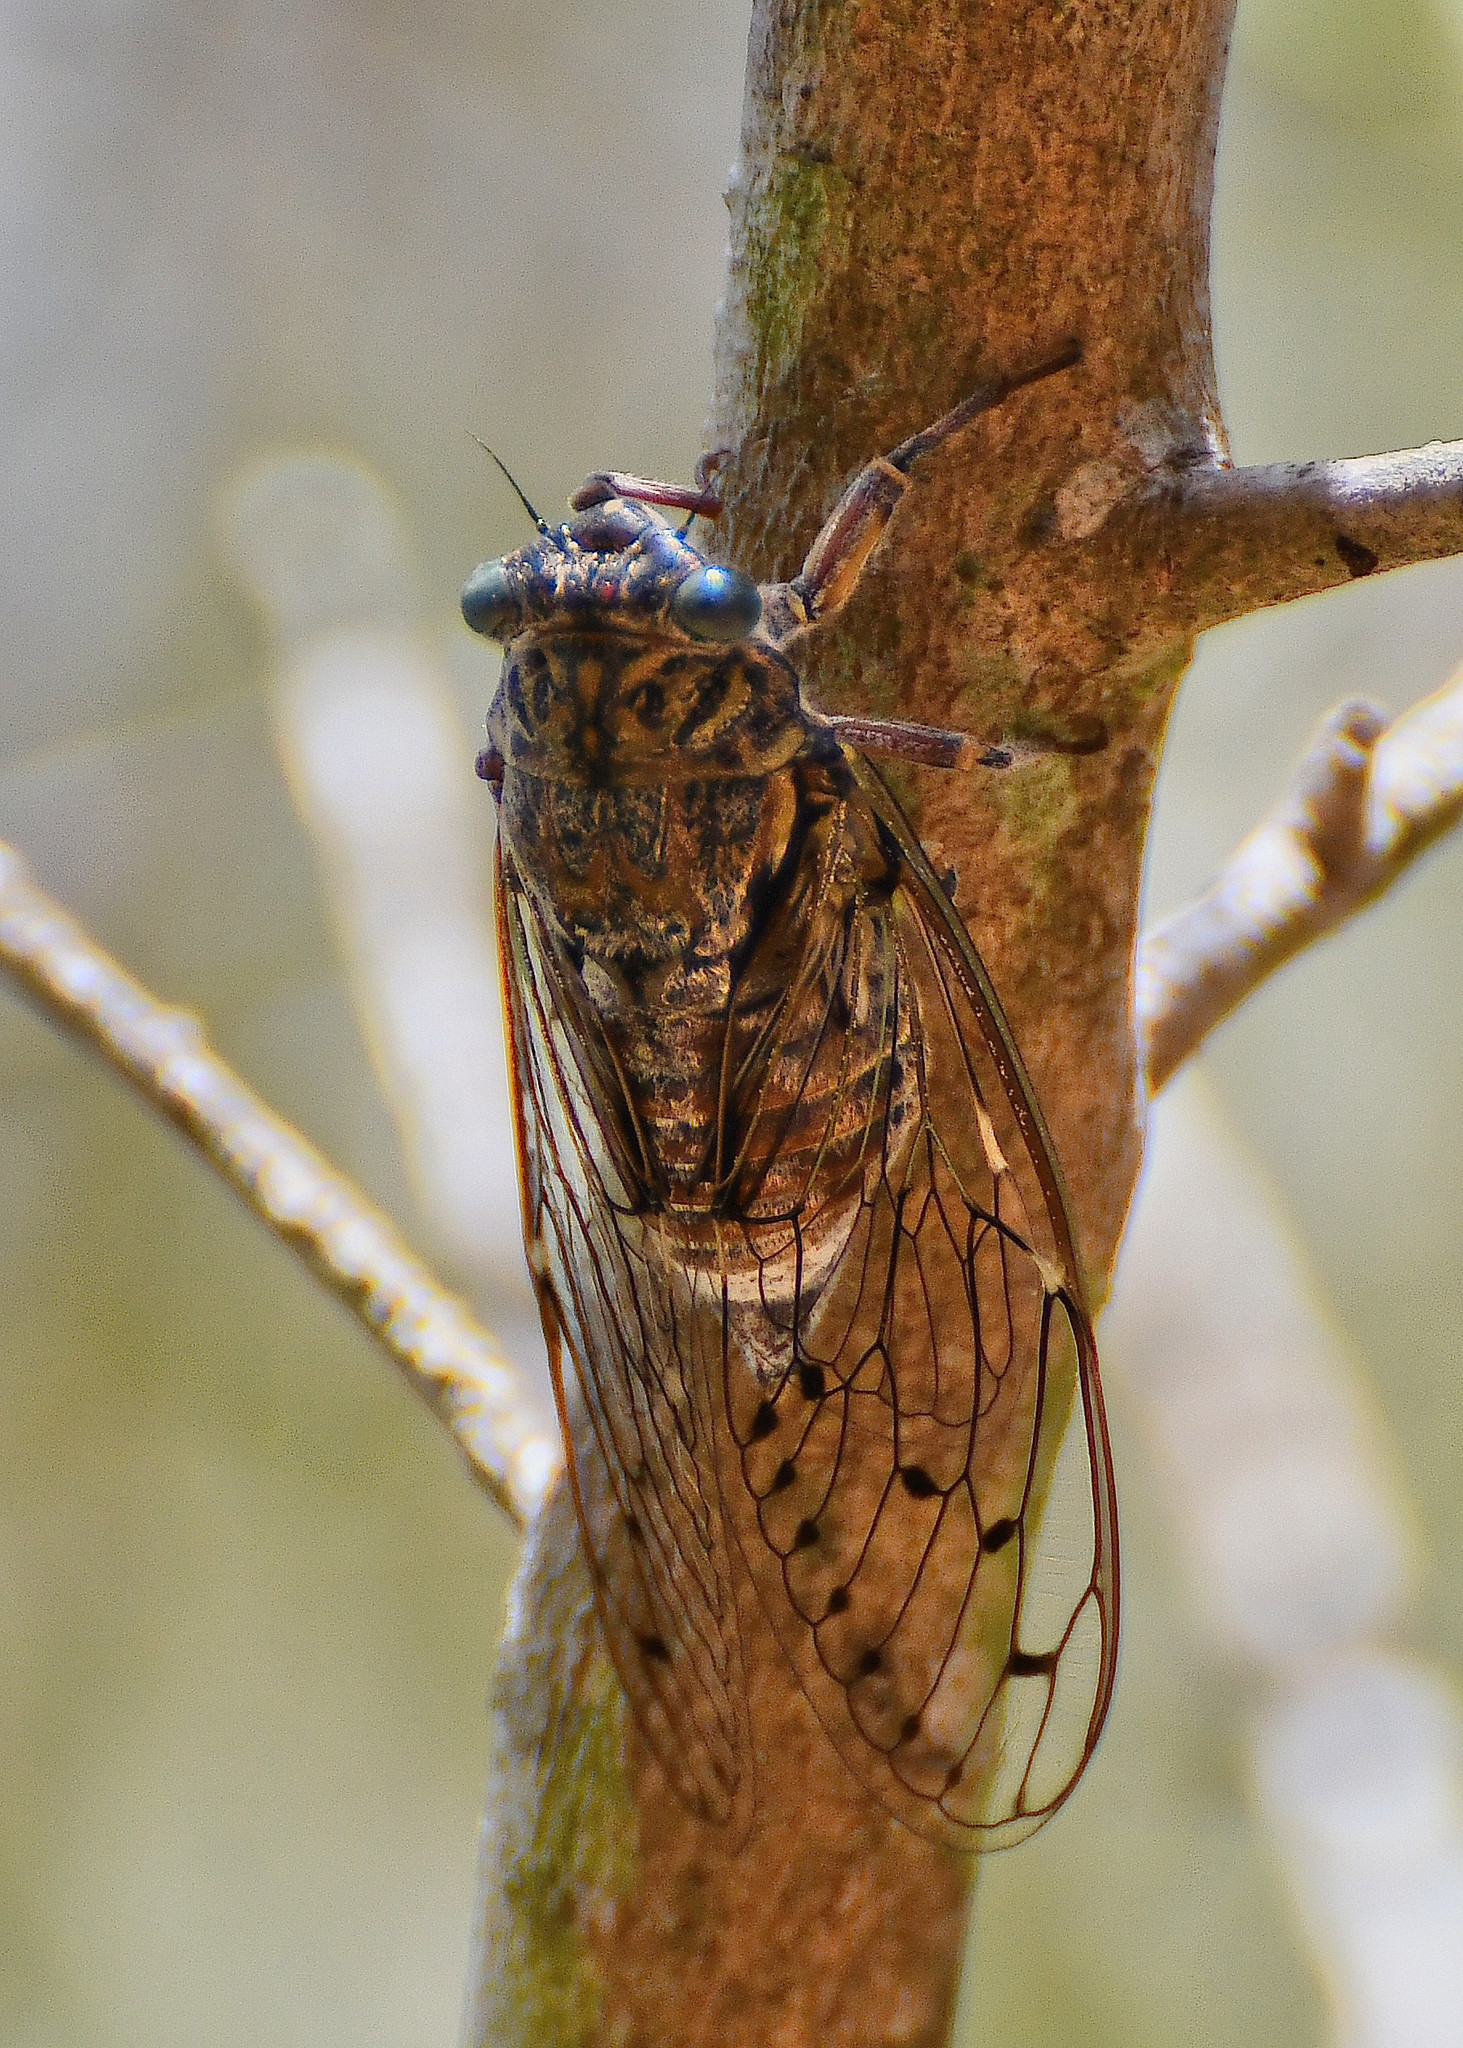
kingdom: Animalia
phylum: Arthropoda
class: Insecta
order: Hemiptera
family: Cicadidae
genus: Cicada
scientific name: Cicada orni
